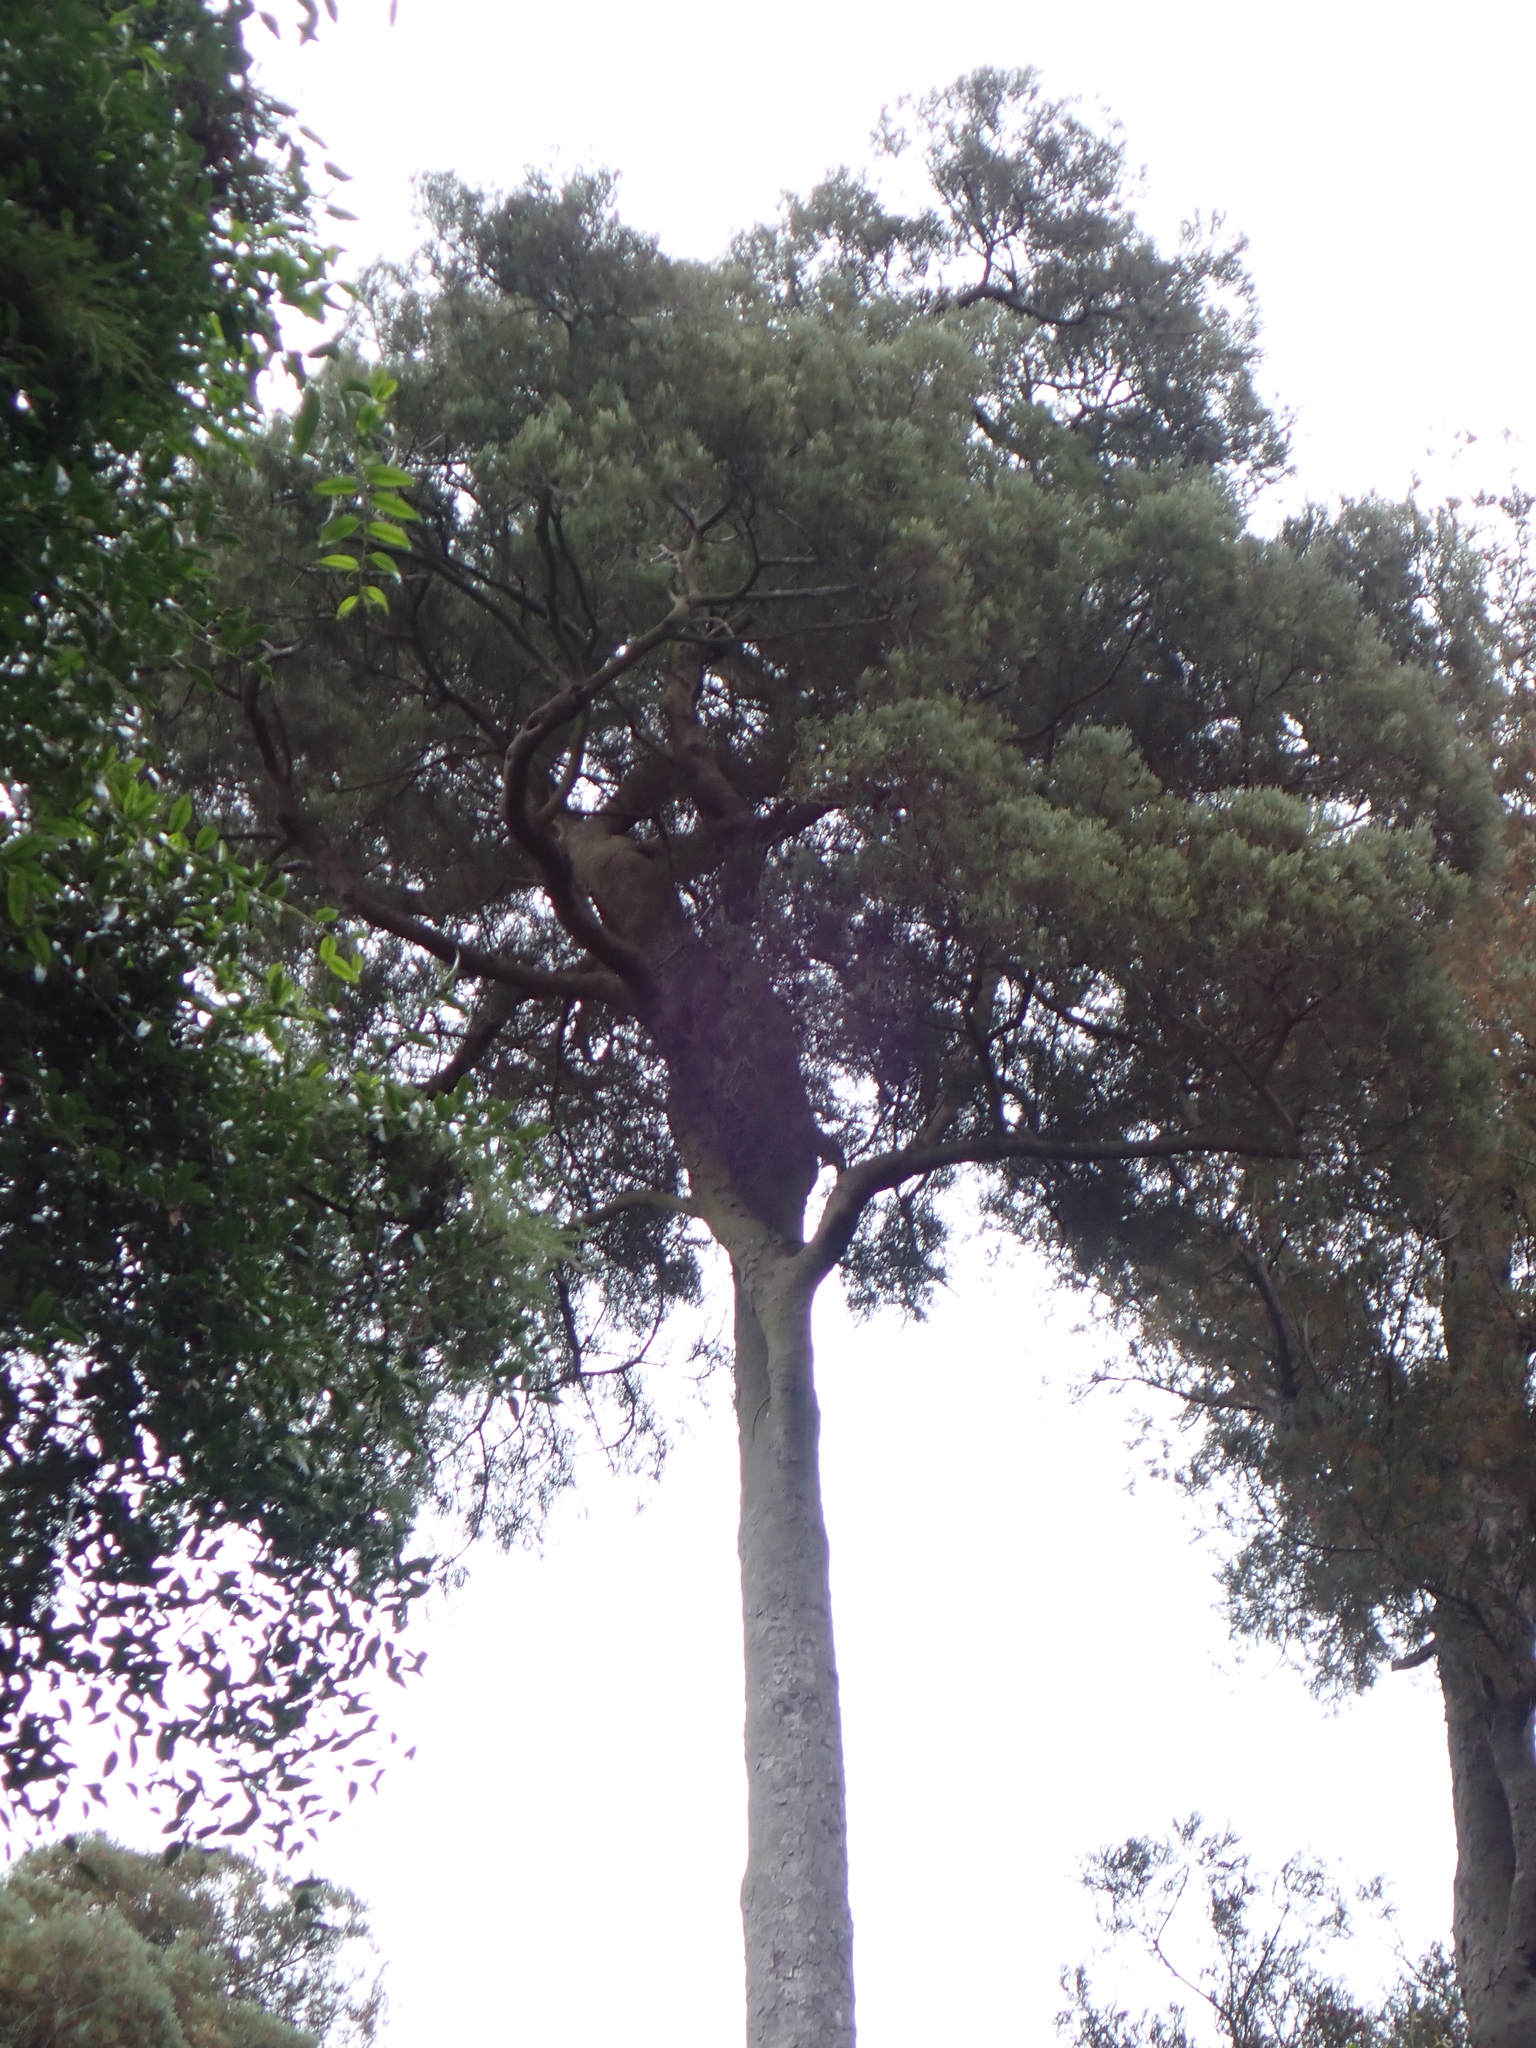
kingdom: Plantae
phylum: Tracheophyta
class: Pinopsida
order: Pinales
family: Podocarpaceae
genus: Prumnopitys
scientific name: Prumnopitys taxifolia
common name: Matai
